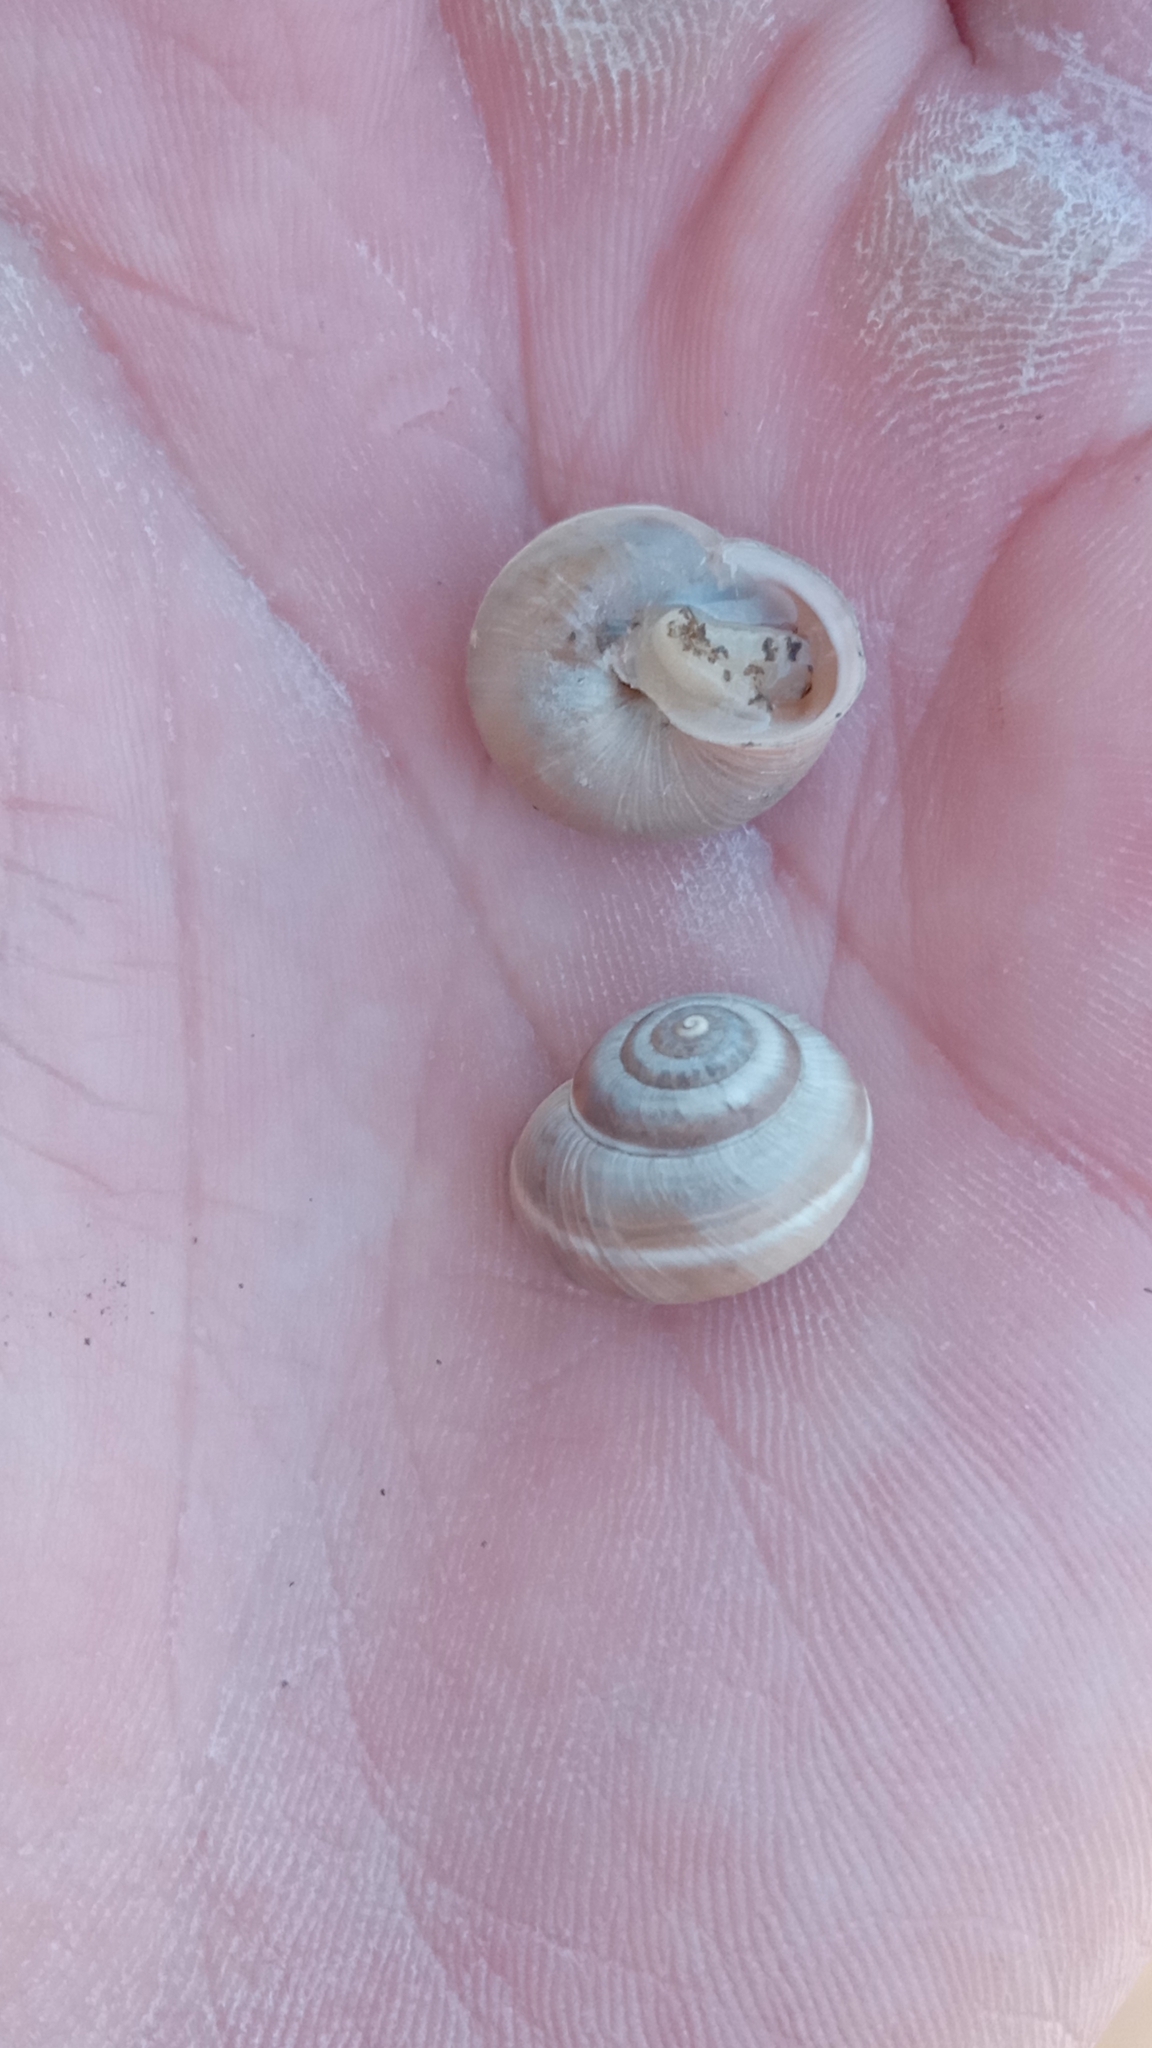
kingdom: Animalia
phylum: Mollusca
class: Gastropoda
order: Stylommatophora
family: Hygromiidae
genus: Harmozica
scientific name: Harmozica ravergiensis
